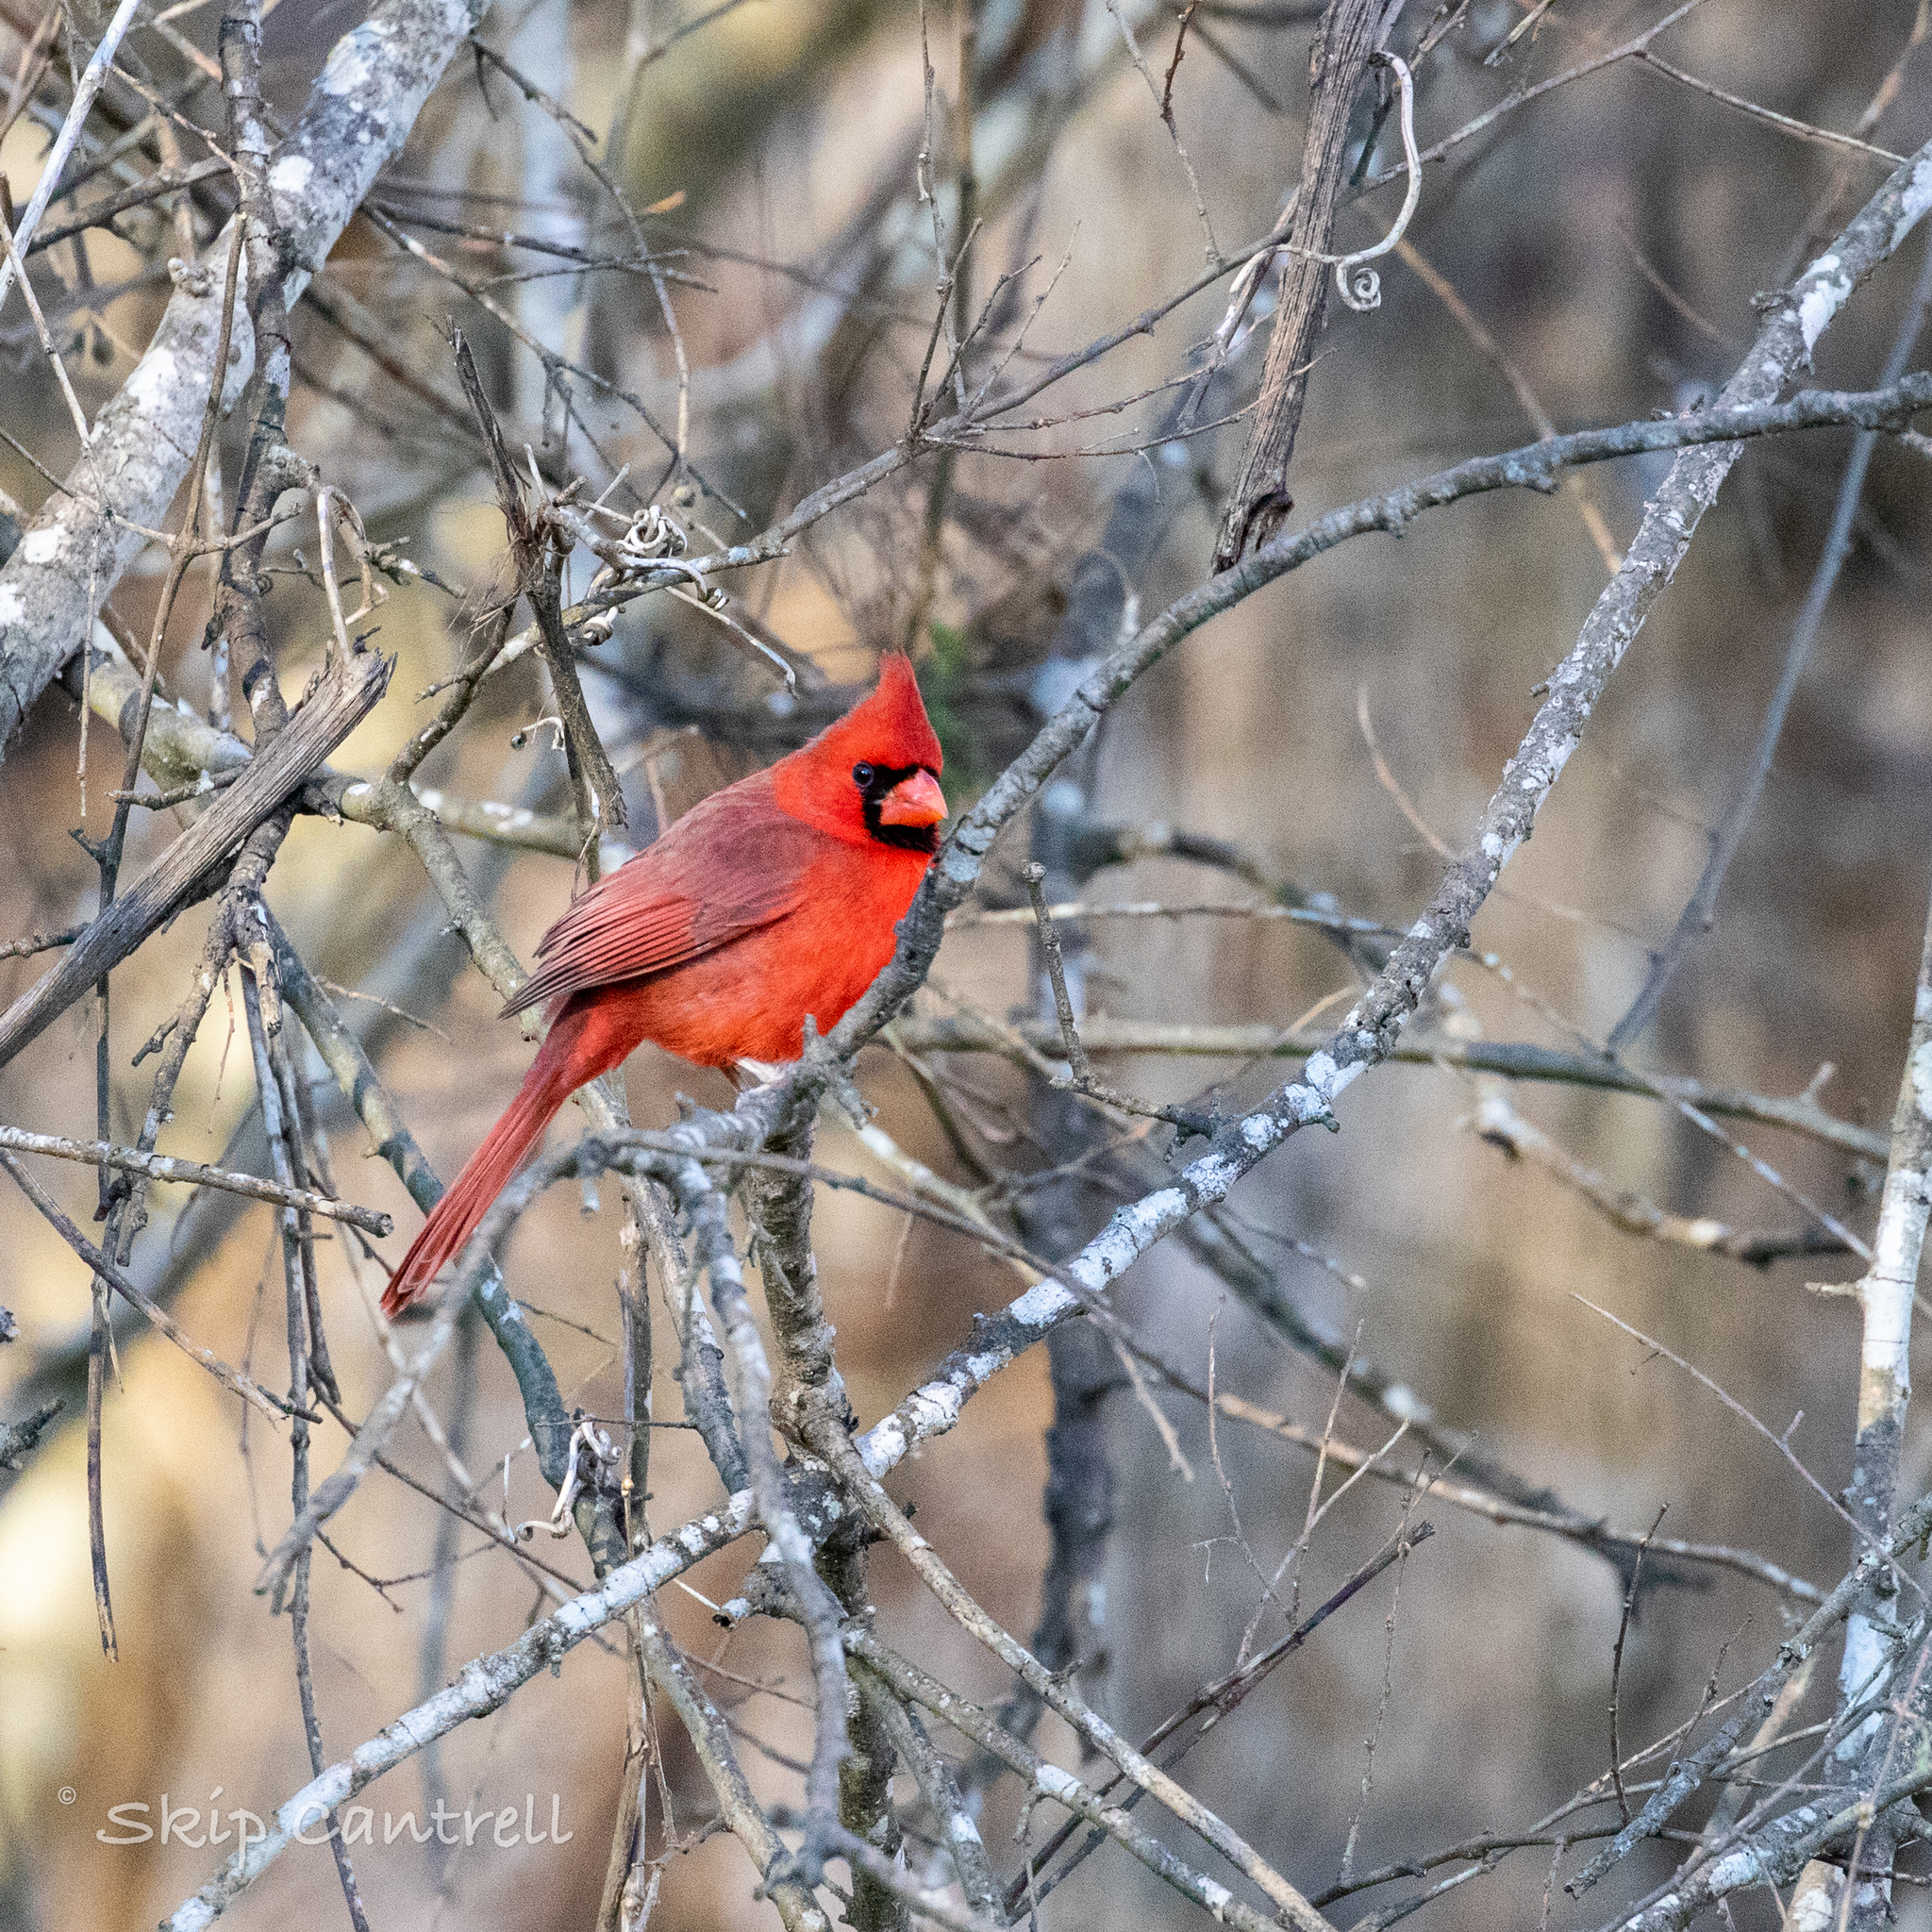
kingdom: Animalia
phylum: Chordata
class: Aves
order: Passeriformes
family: Cardinalidae
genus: Cardinalis
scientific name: Cardinalis cardinalis
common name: Northern cardinal
